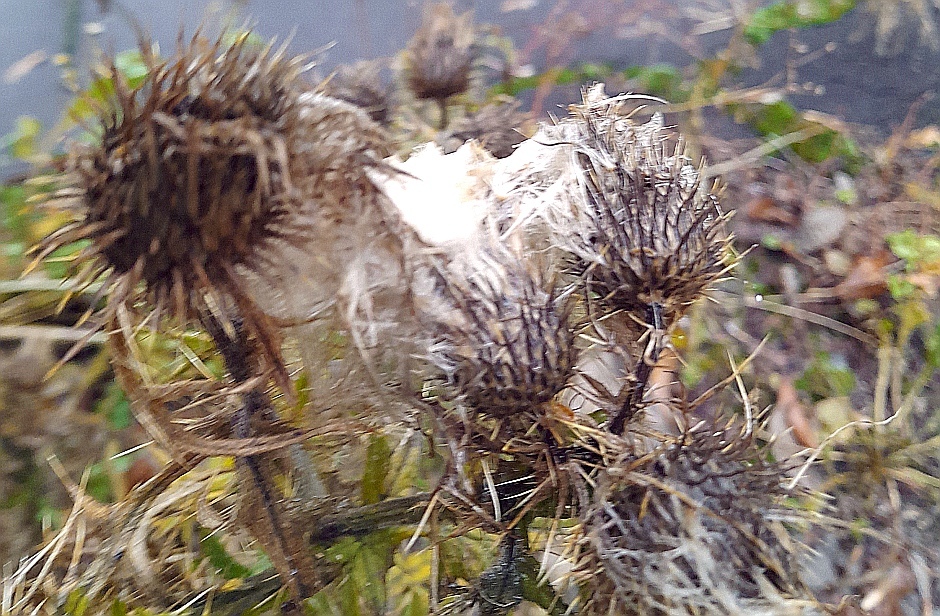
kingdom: Plantae
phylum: Tracheophyta
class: Magnoliopsida
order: Asterales
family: Asteraceae
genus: Cirsium
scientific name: Cirsium vulgare
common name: Bull thistle
